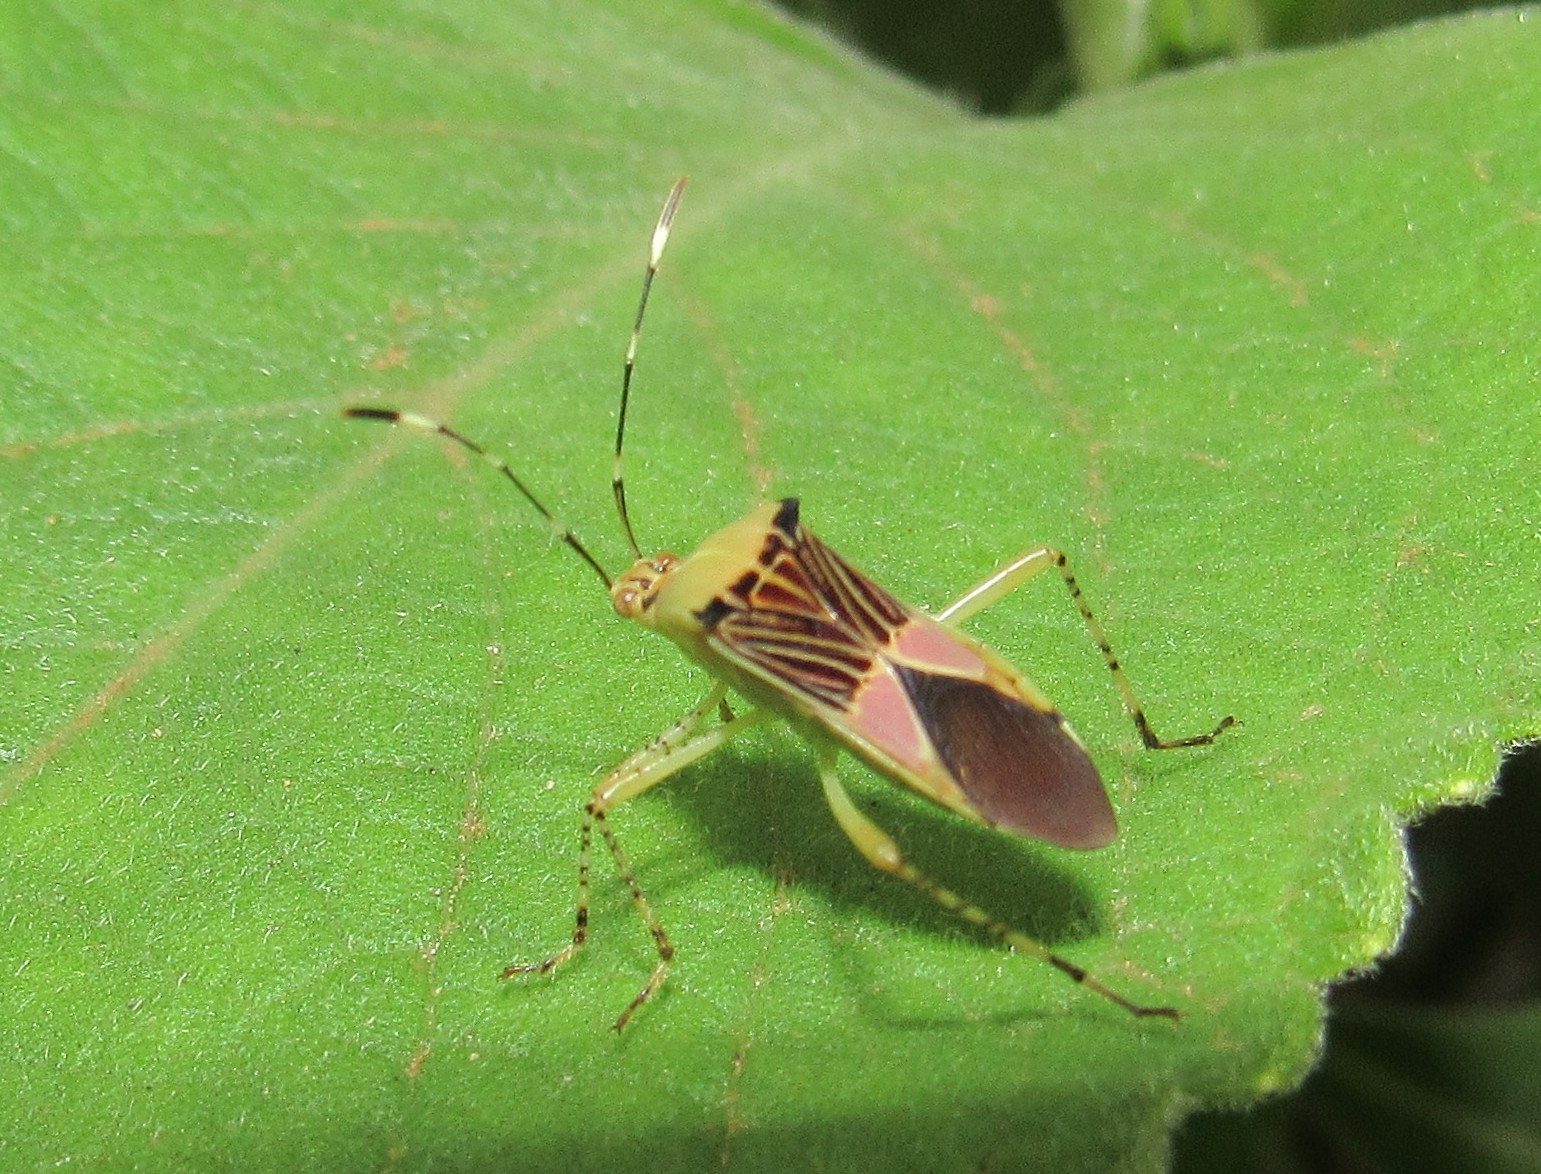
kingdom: Animalia
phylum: Arthropoda
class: Insecta
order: Hemiptera
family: Coreidae
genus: Hypselonotus
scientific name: Hypselonotus fulvus
